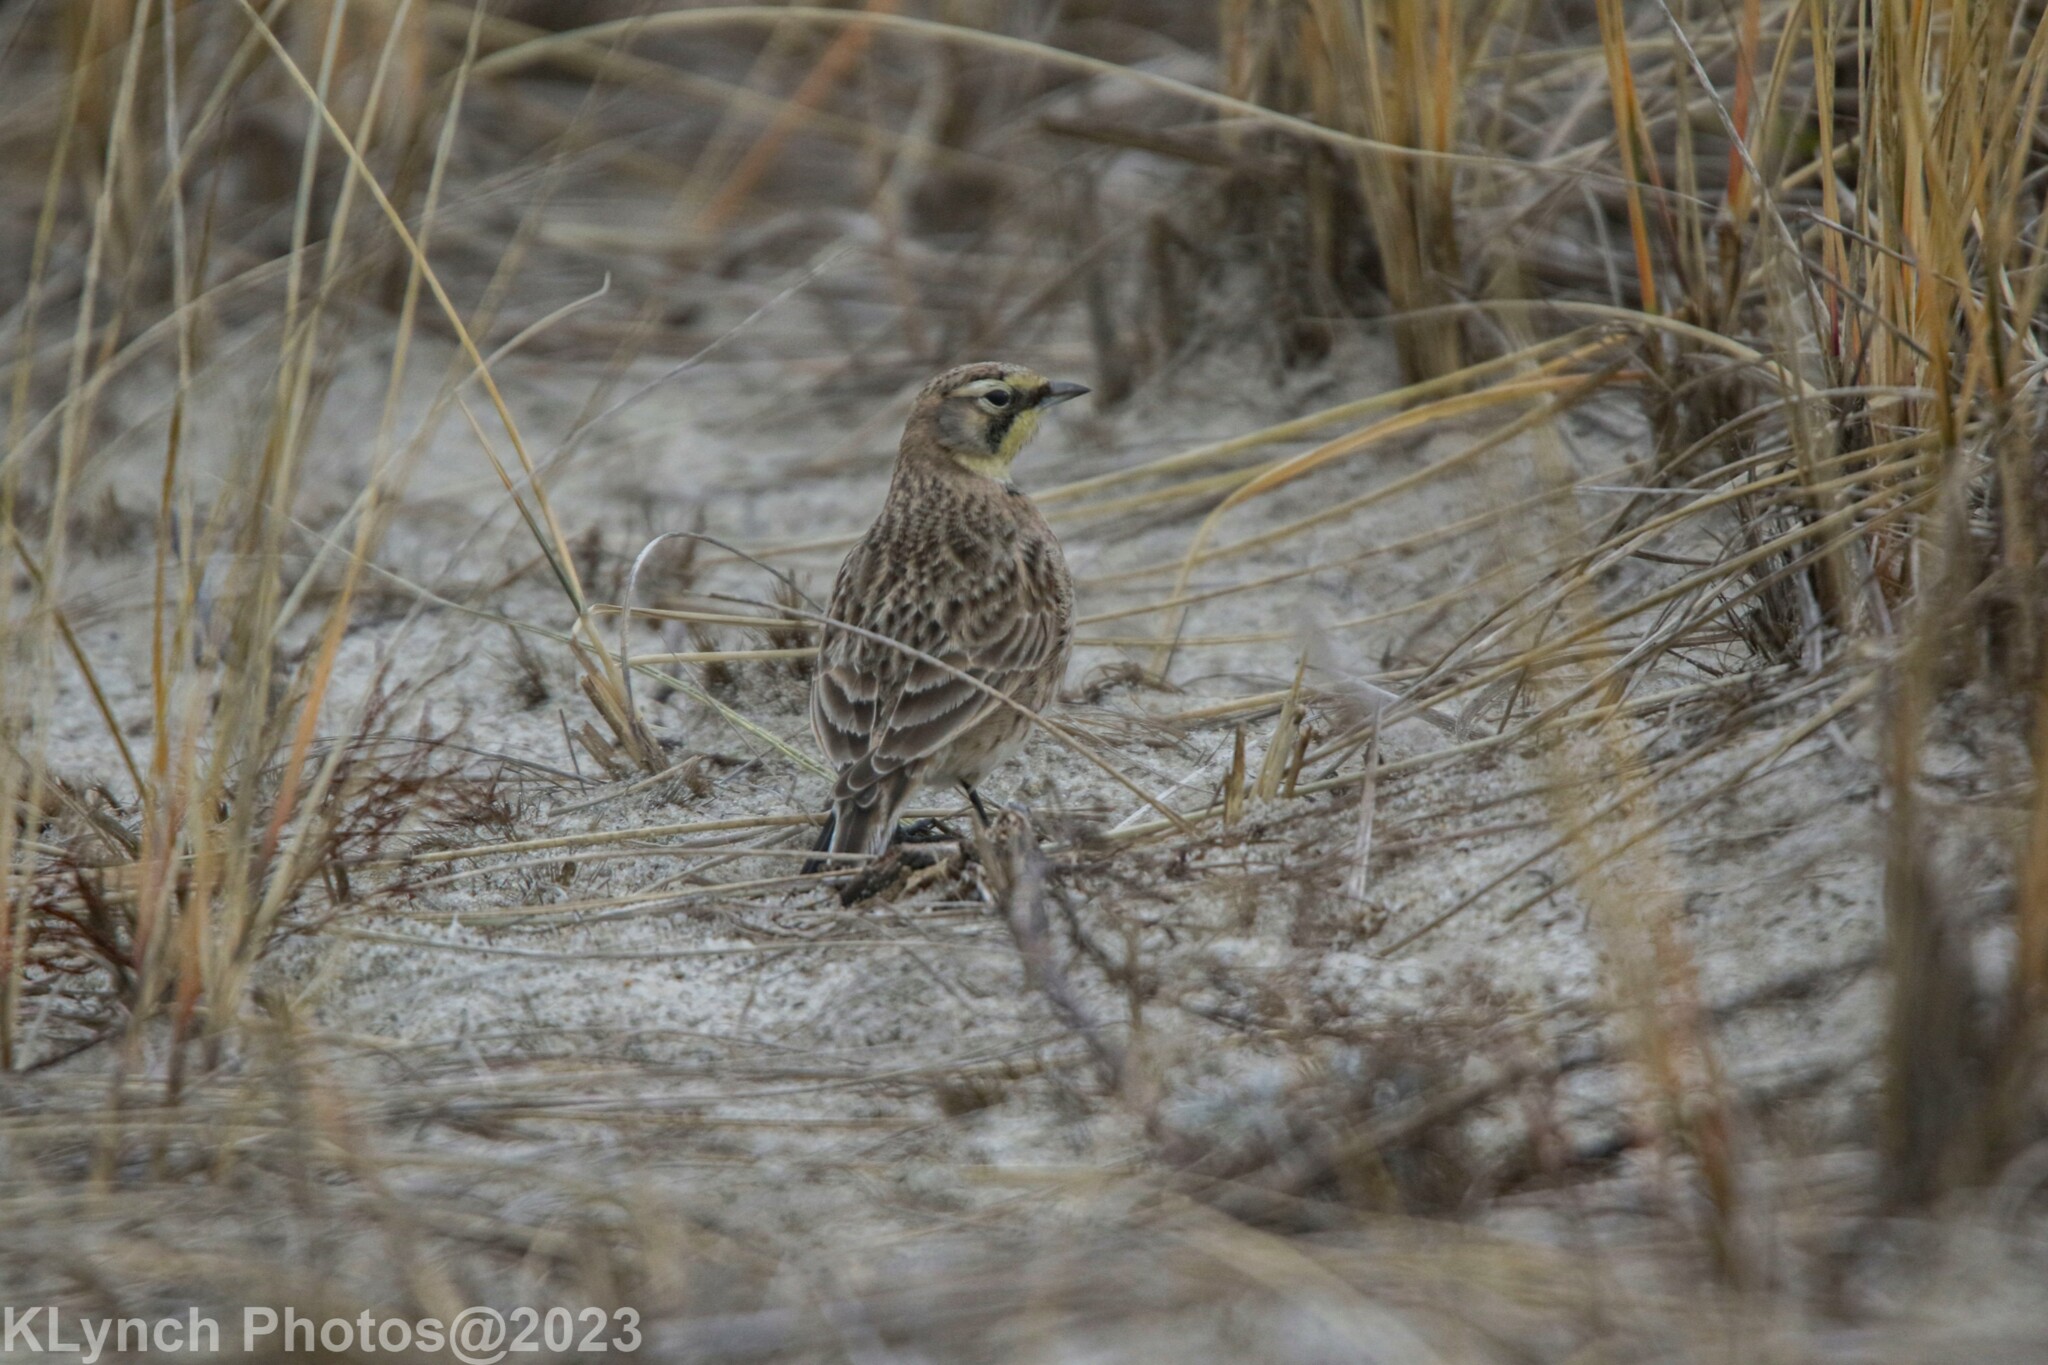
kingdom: Animalia
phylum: Chordata
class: Aves
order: Passeriformes
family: Alaudidae
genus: Eremophila
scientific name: Eremophila alpestris
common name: Horned lark
